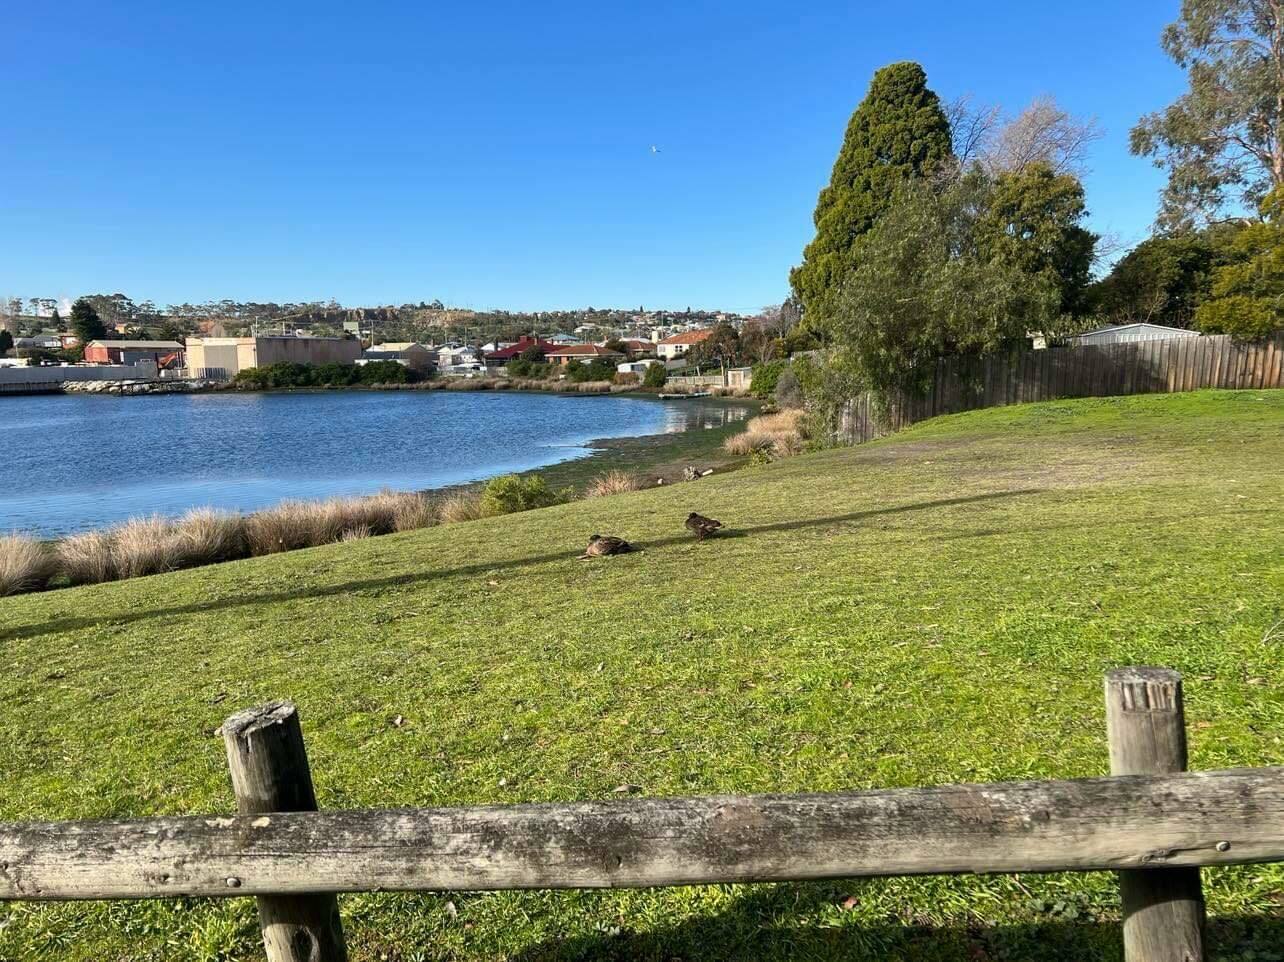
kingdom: Animalia
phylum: Chordata
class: Aves
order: Anseriformes
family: Anatidae
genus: Anas
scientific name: Anas platyrhynchos
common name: Mallard
